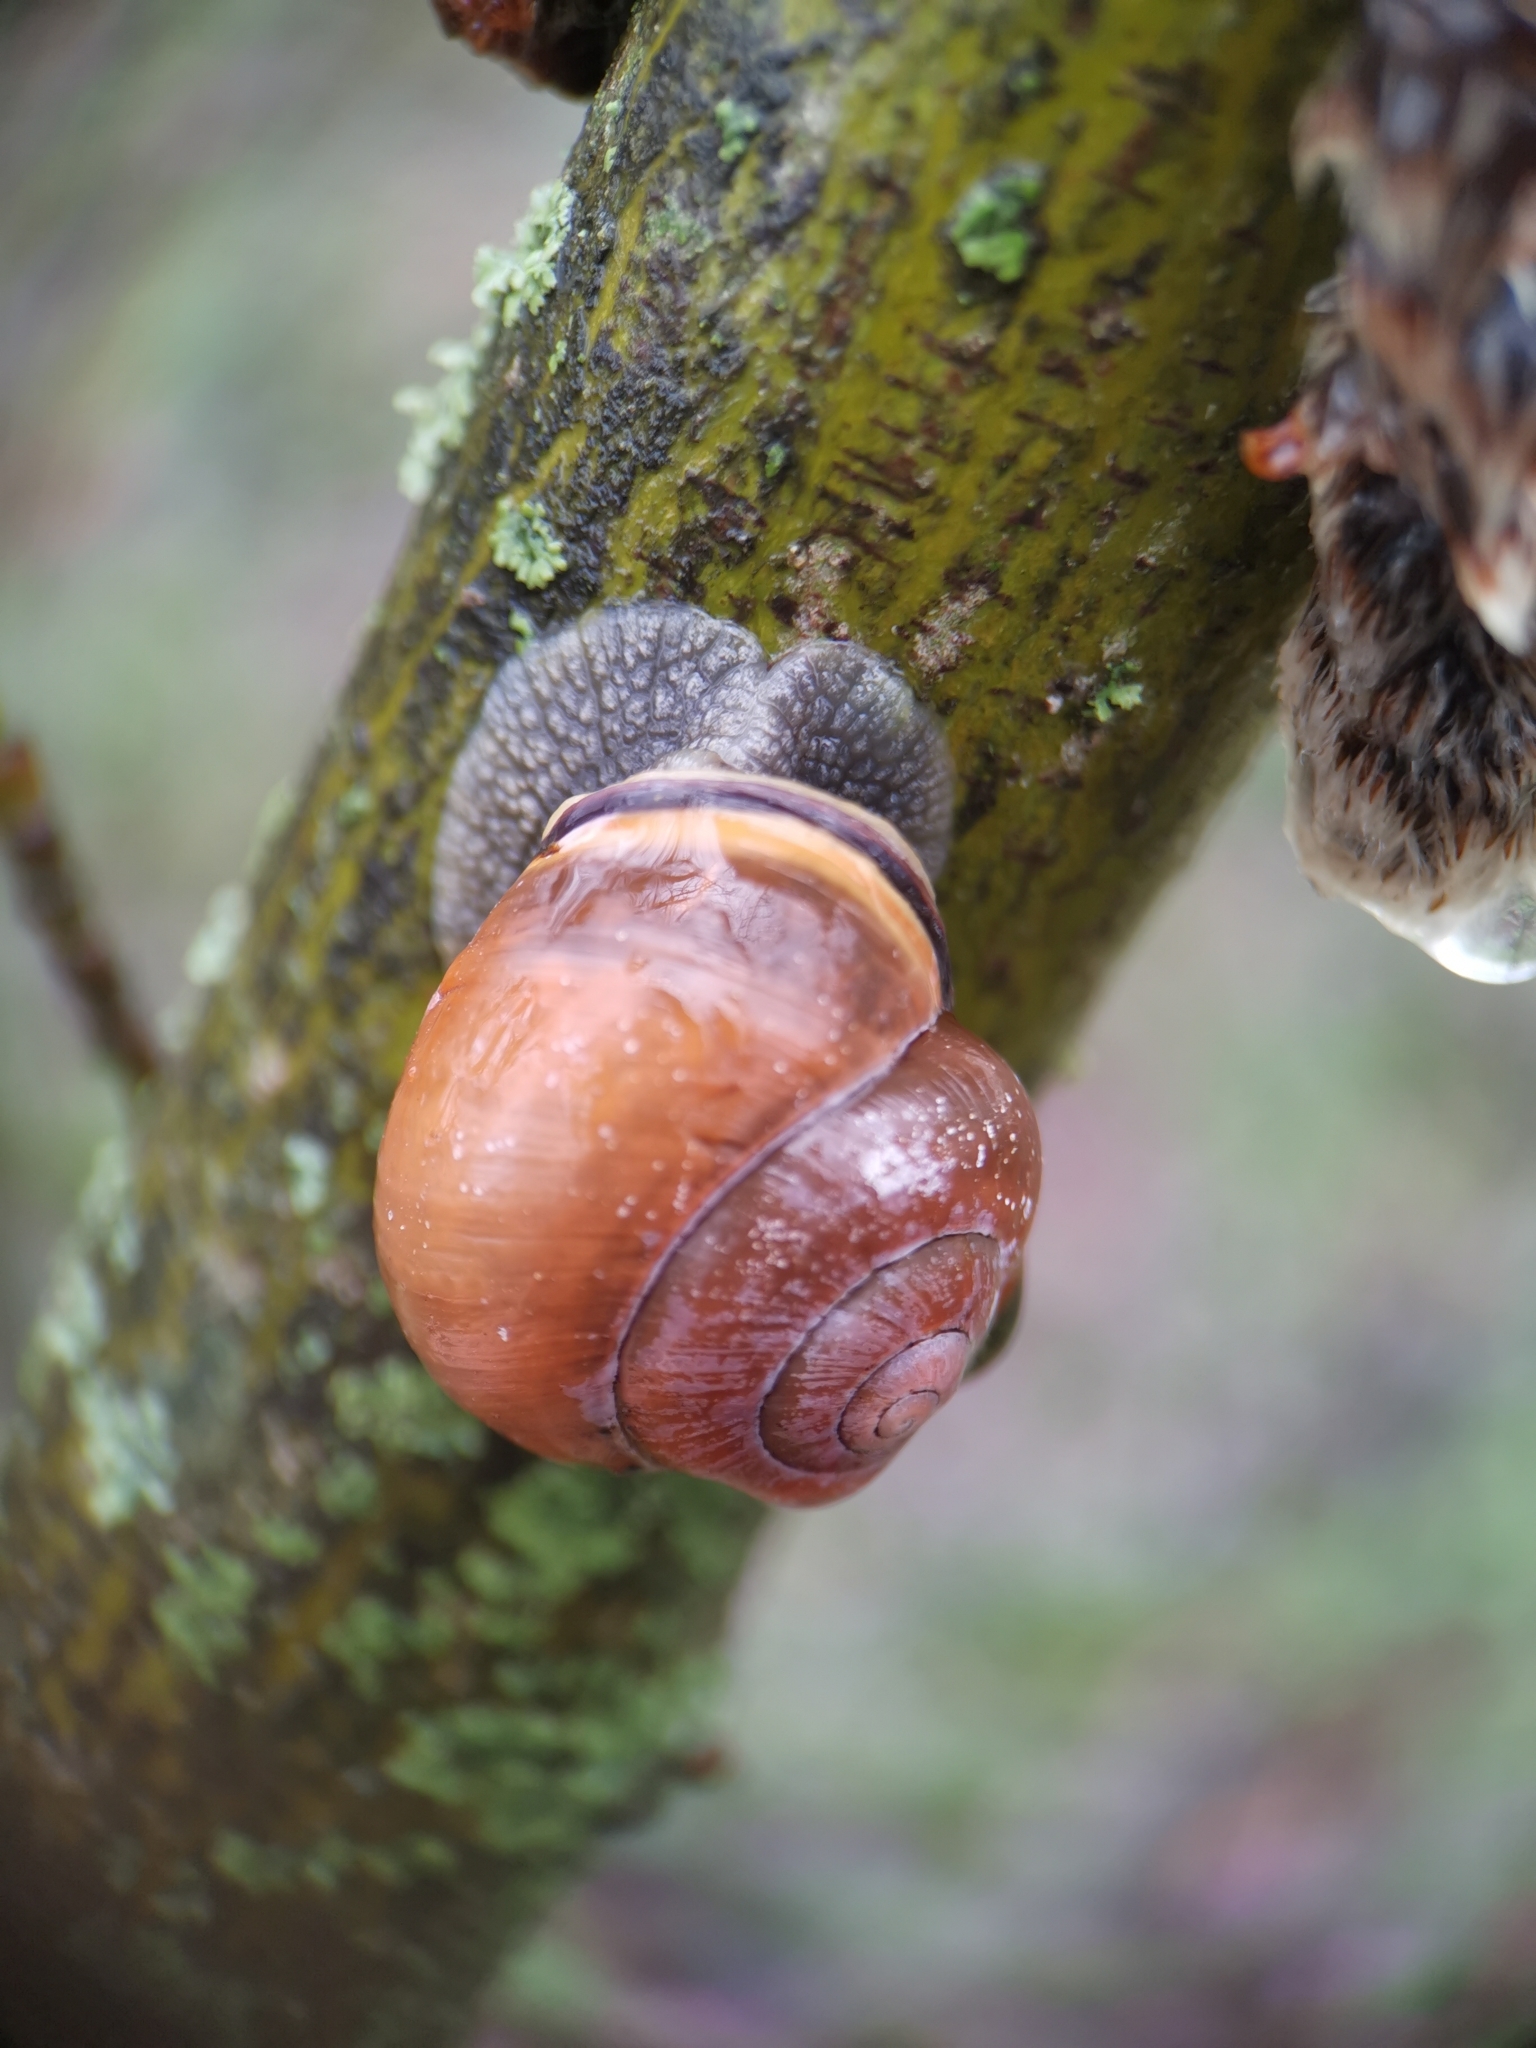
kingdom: Animalia
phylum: Mollusca
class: Gastropoda
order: Stylommatophora
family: Helicidae
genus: Cepaea
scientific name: Cepaea nemoralis
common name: Grovesnail
